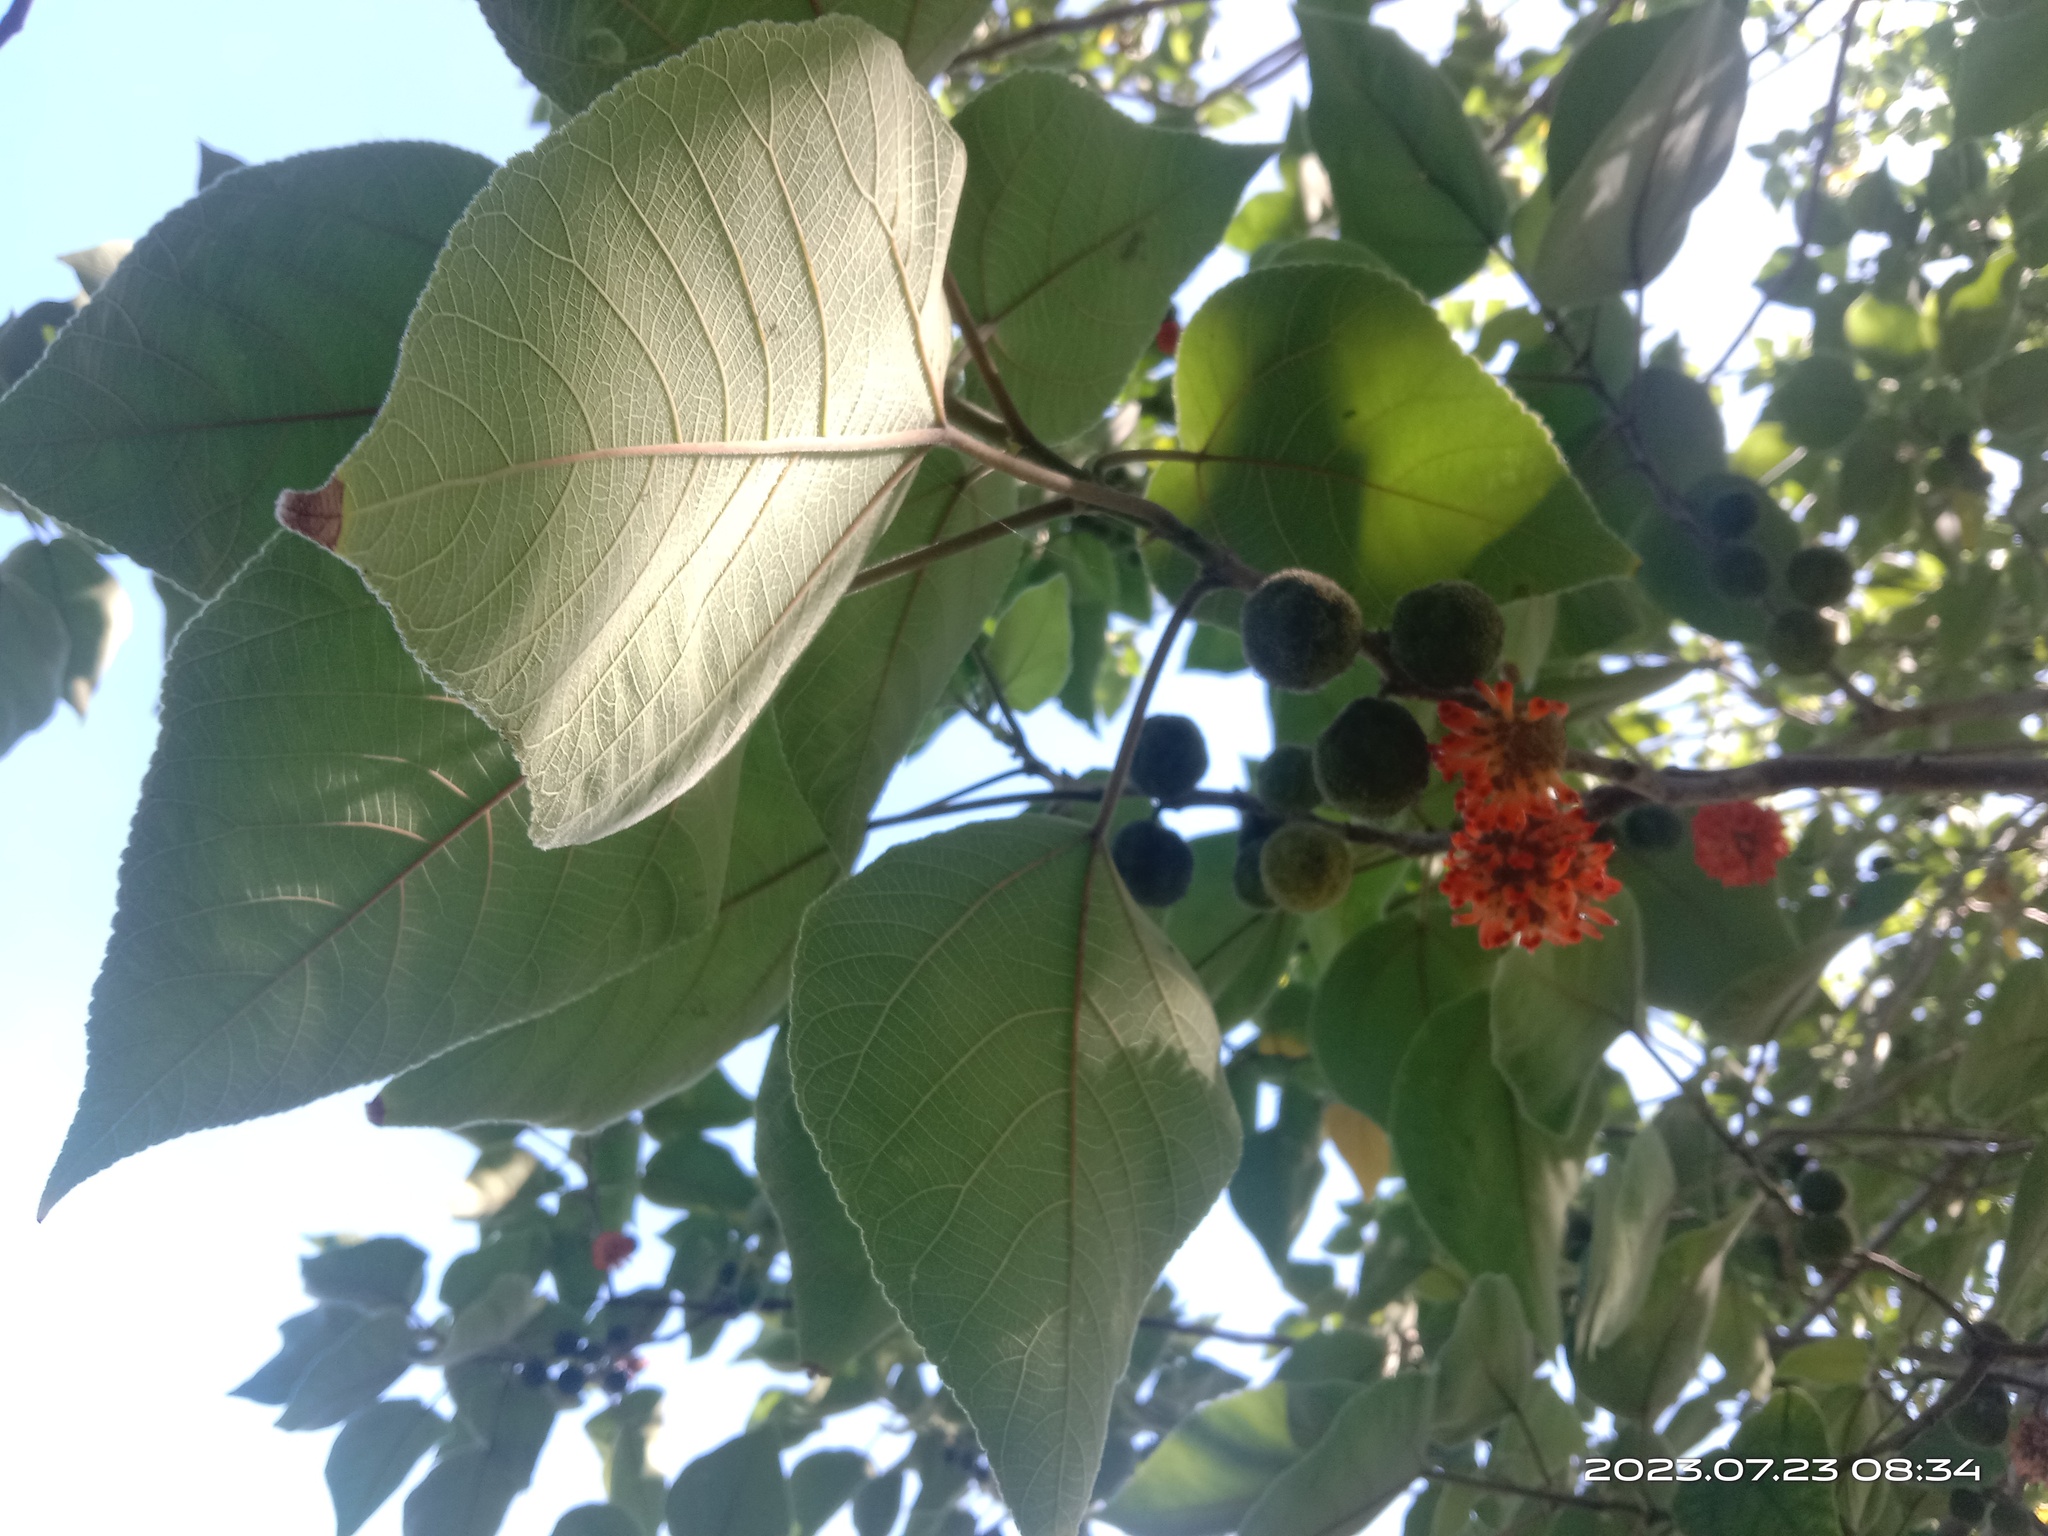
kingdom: Plantae
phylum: Tracheophyta
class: Magnoliopsida
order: Rosales
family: Moraceae
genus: Broussonetia
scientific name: Broussonetia papyrifera
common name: Paper mulberry
